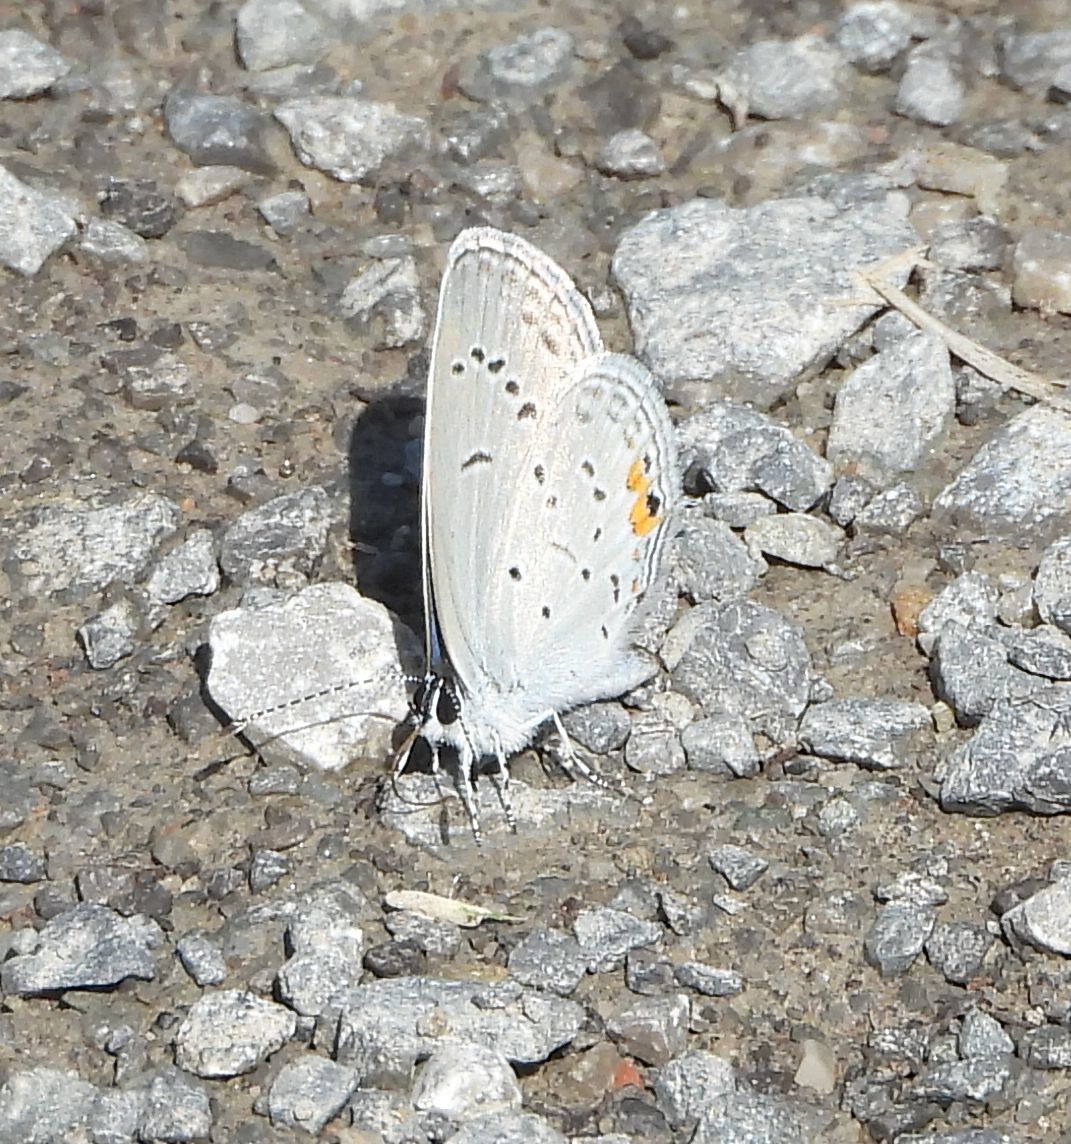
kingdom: Animalia
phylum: Arthropoda
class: Insecta
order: Lepidoptera
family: Lycaenidae
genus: Elkalyce
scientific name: Elkalyce comyntas
